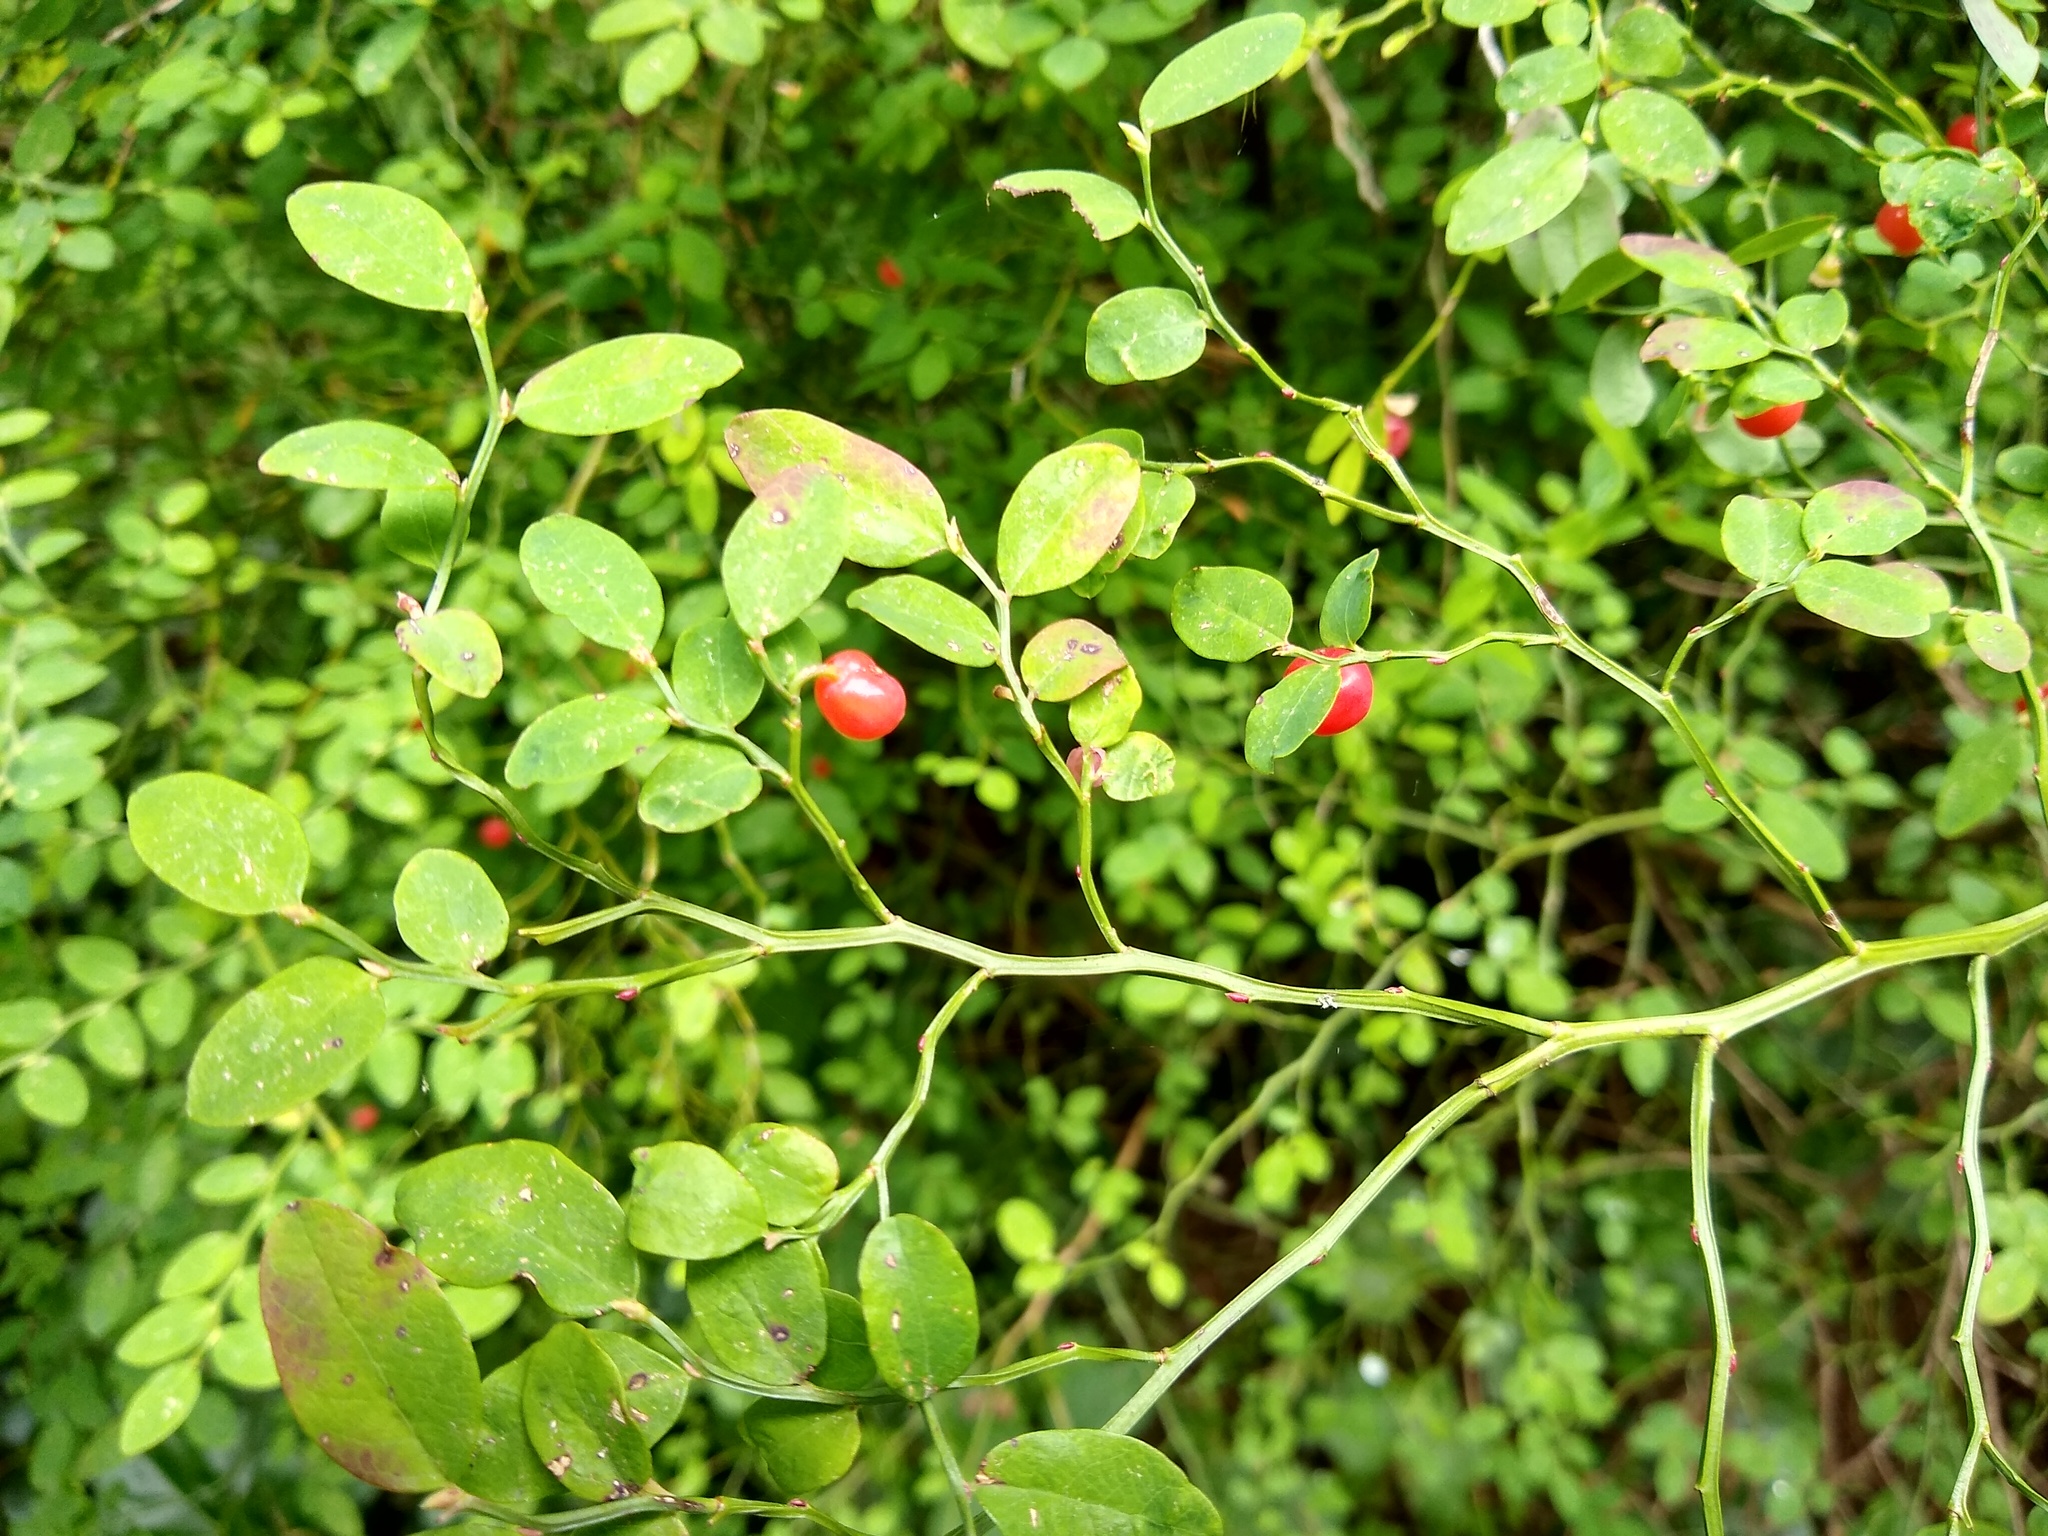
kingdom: Plantae
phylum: Tracheophyta
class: Magnoliopsida
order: Ericales
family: Ericaceae
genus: Vaccinium
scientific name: Vaccinium parvifolium
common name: Red-huckleberry
